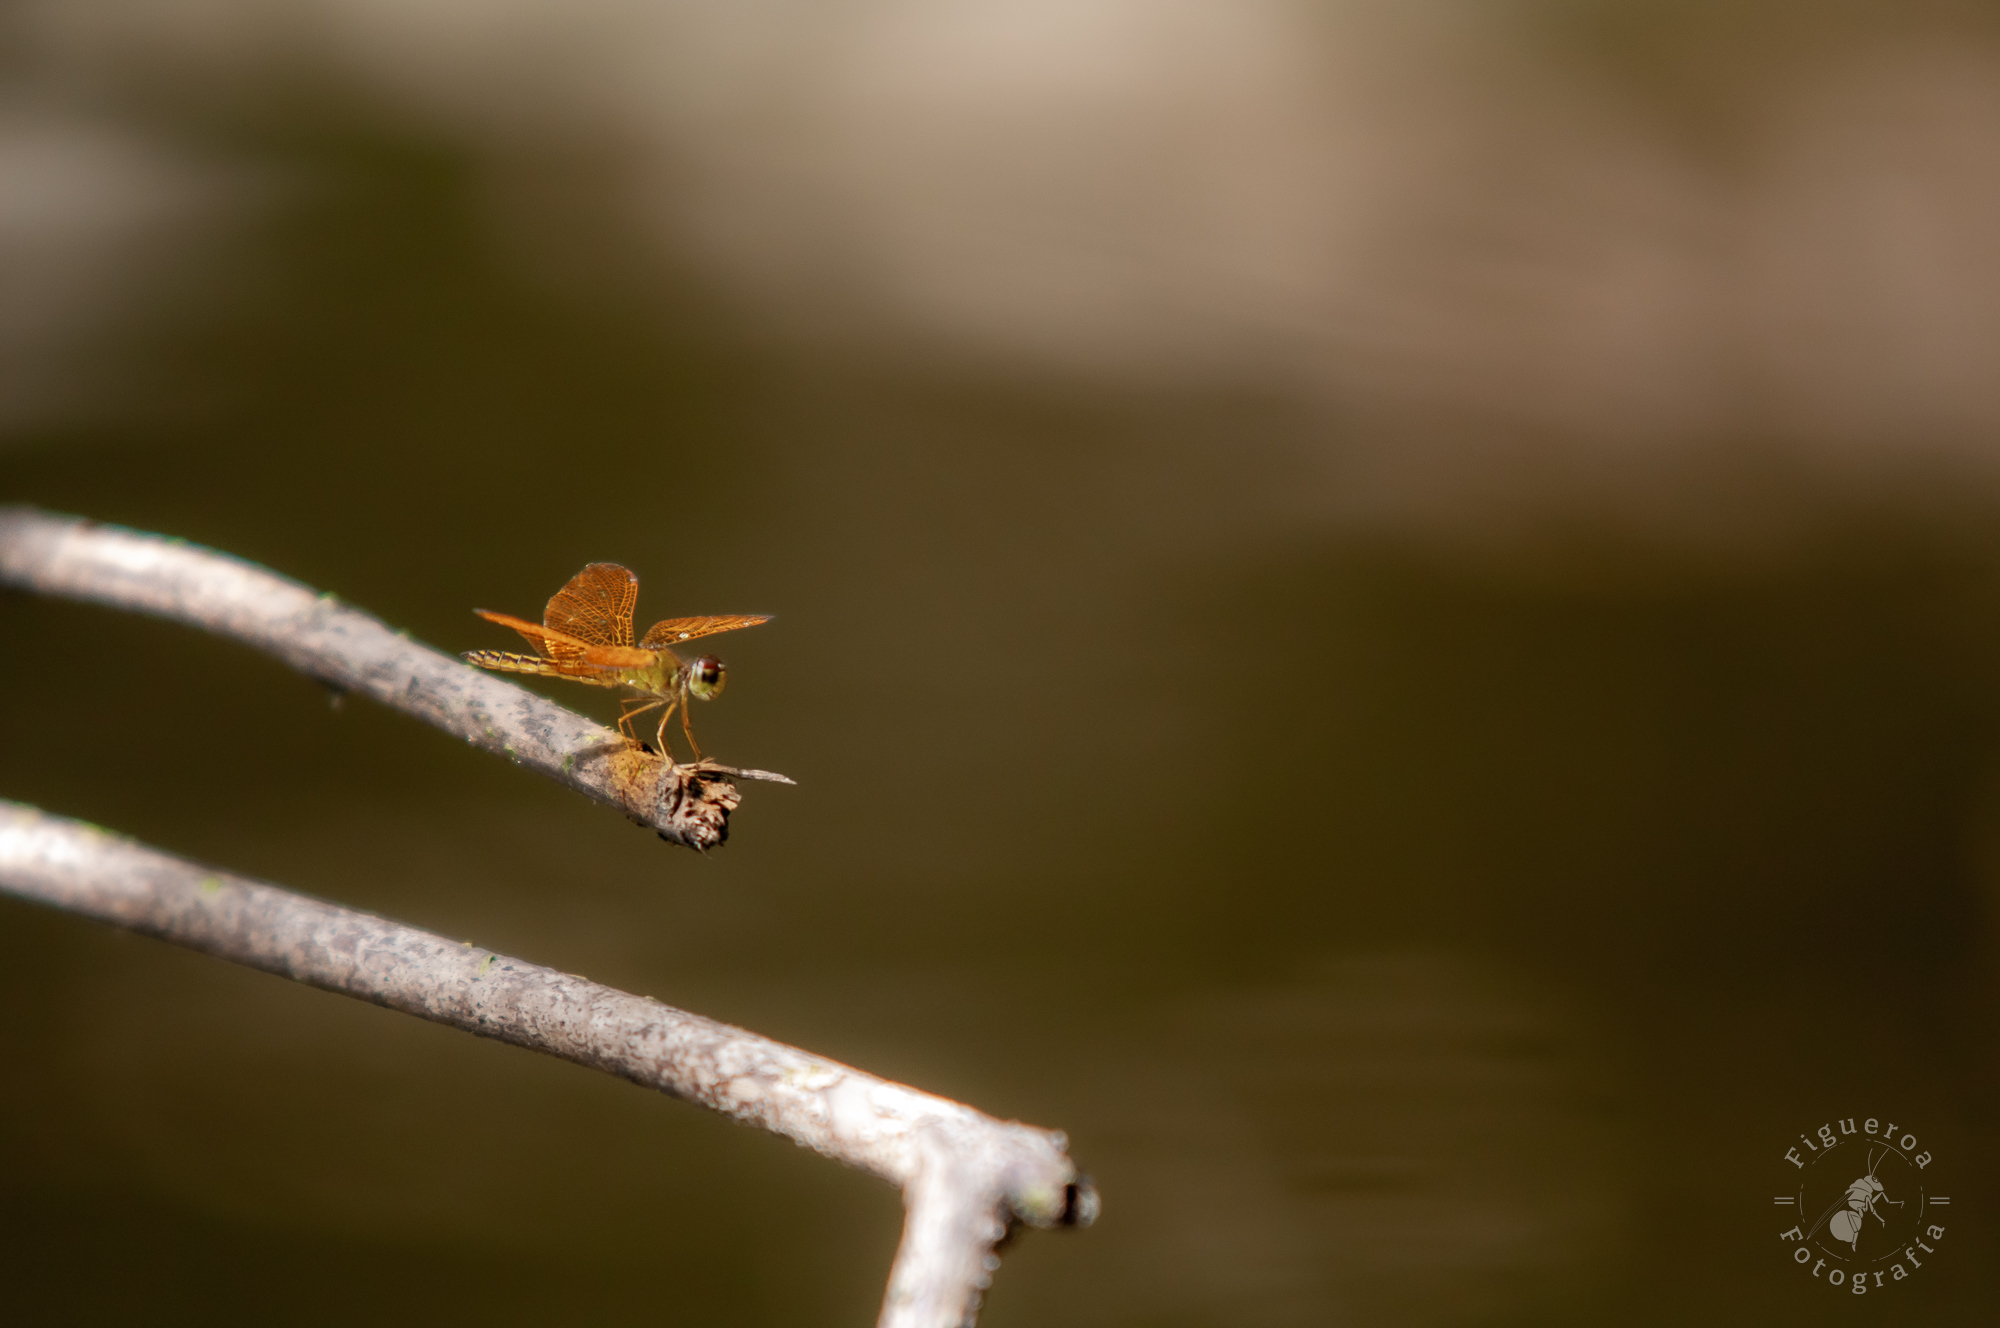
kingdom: Animalia
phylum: Arthropoda
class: Insecta
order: Odonata
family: Libellulidae
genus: Perithemis
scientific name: Perithemis tenera
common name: Eastern amberwing
